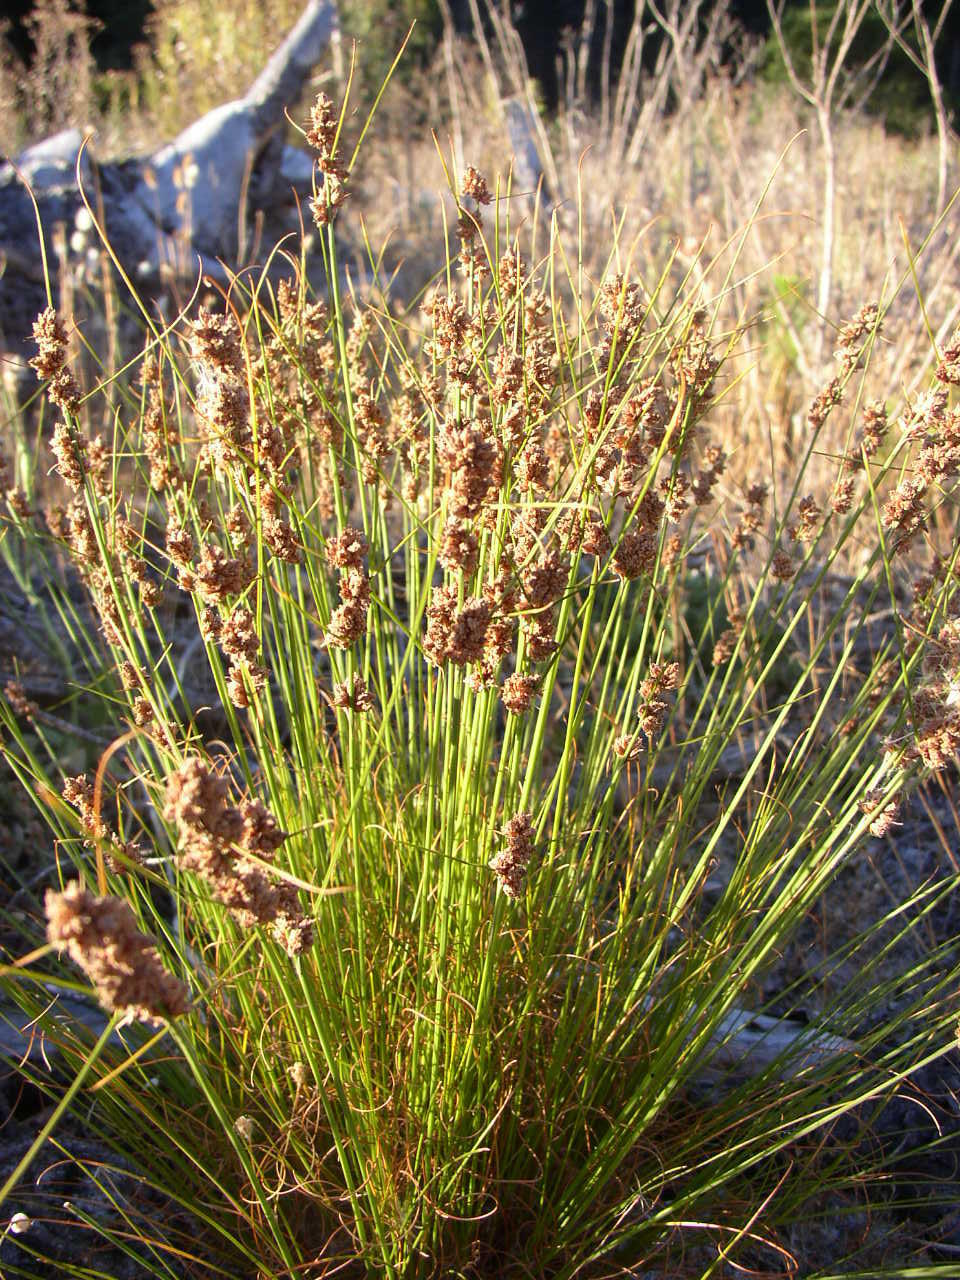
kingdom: Plantae
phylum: Tracheophyta
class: Liliopsida
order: Poales
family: Cyperaceae
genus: Ficinia
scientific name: Ficinia bulbosa
